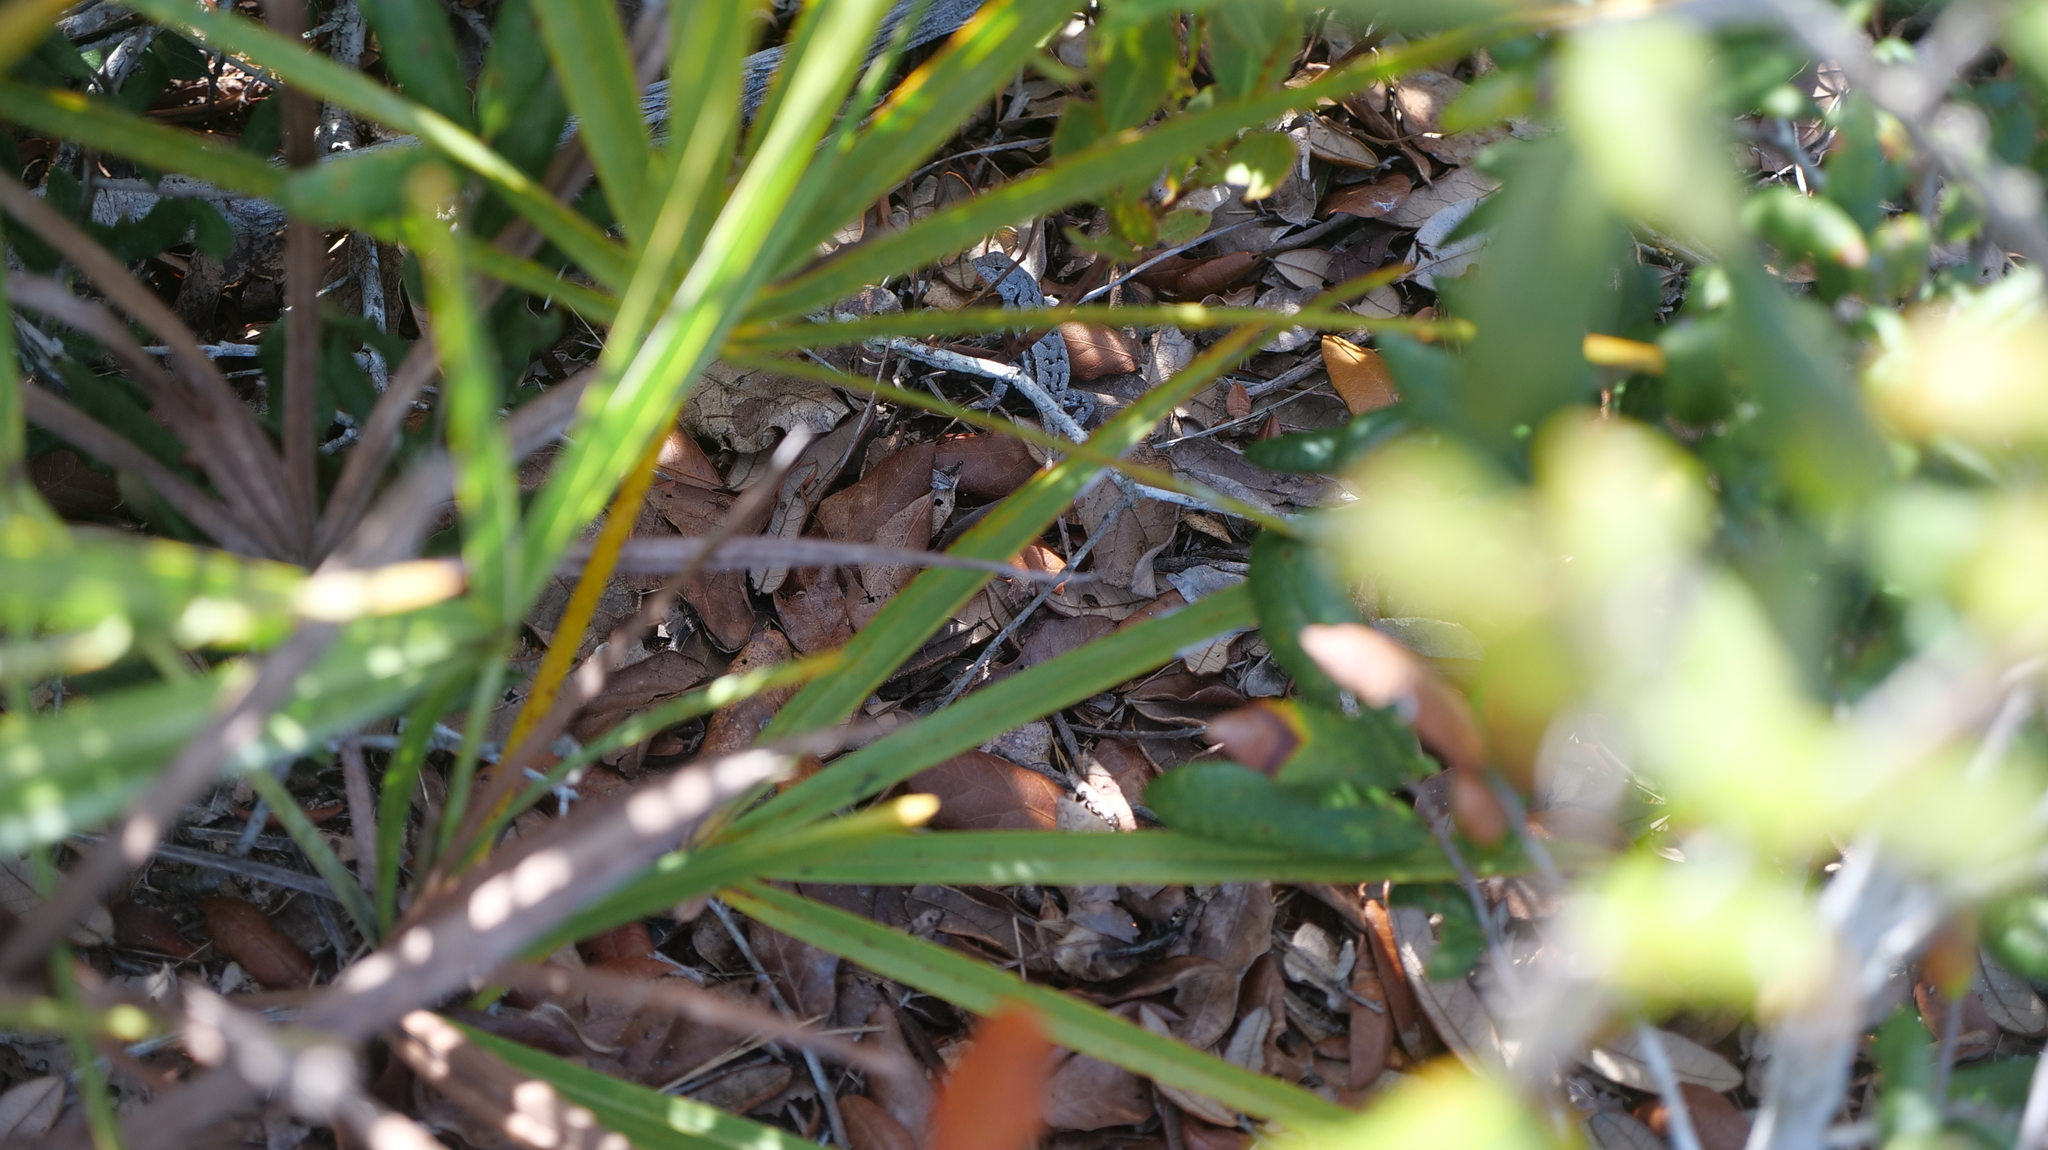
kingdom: Animalia
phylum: Chordata
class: Squamata
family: Phrynosomatidae
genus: Sceloporus
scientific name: Sceloporus woodi
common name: Florida scrub lizard
